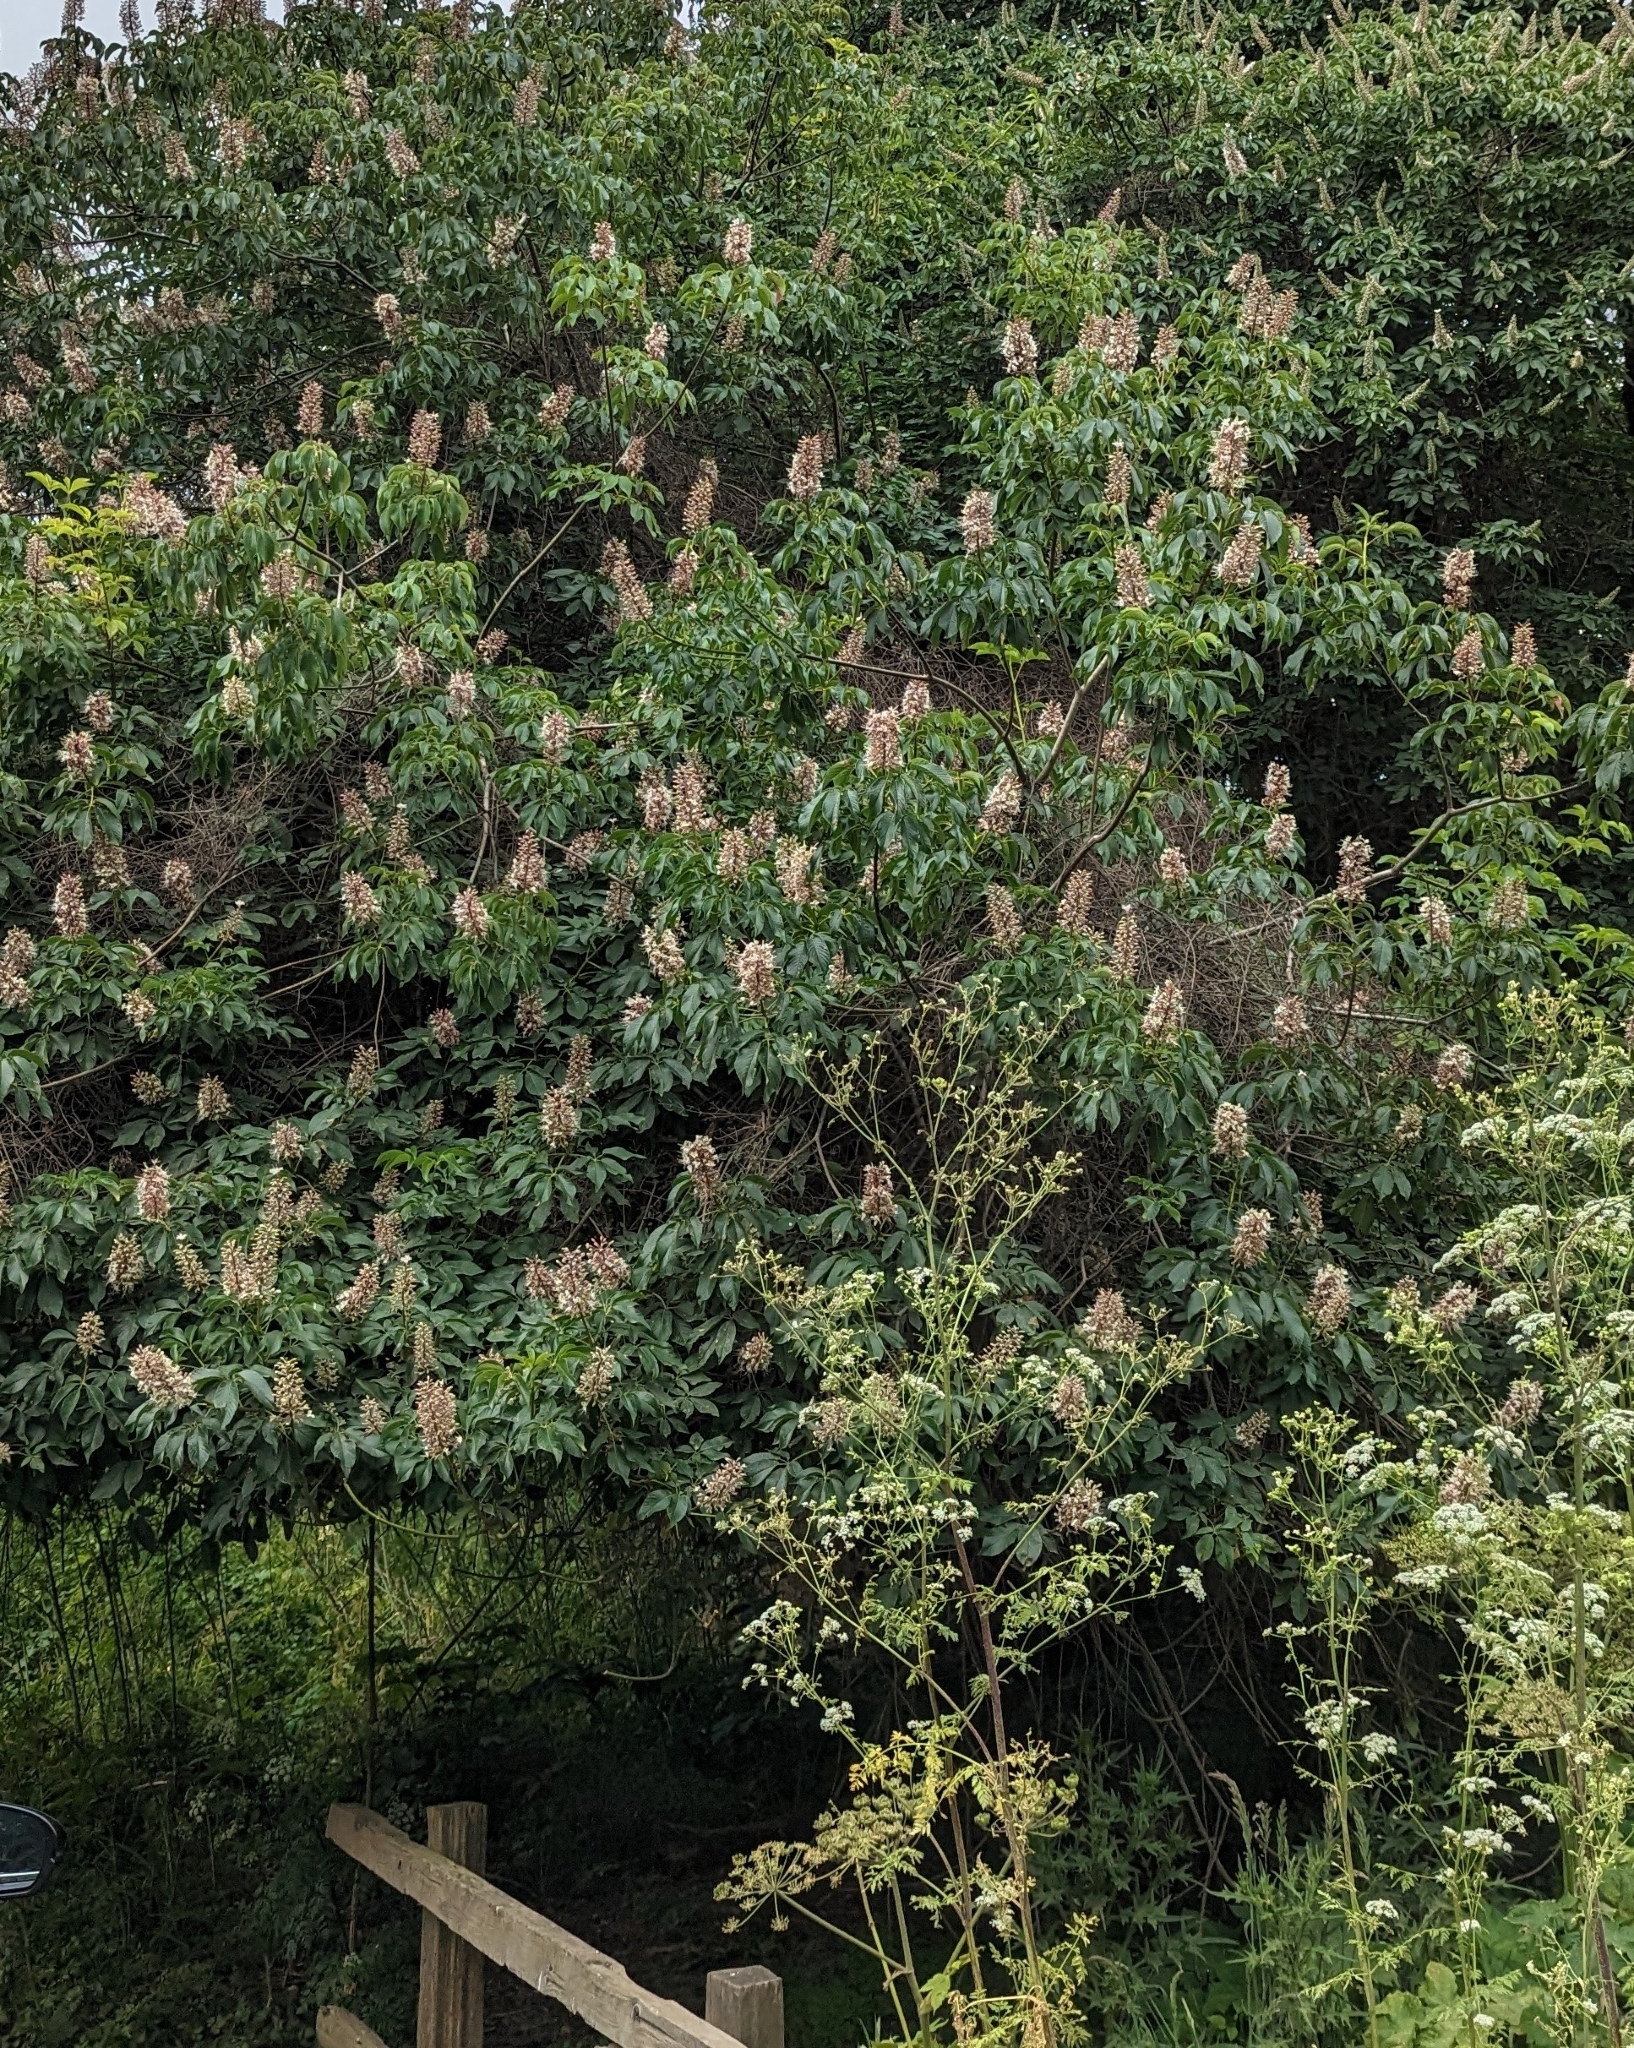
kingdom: Plantae
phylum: Tracheophyta
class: Magnoliopsida
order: Sapindales
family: Sapindaceae
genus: Aesculus
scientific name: Aesculus californica
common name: California buckeye
